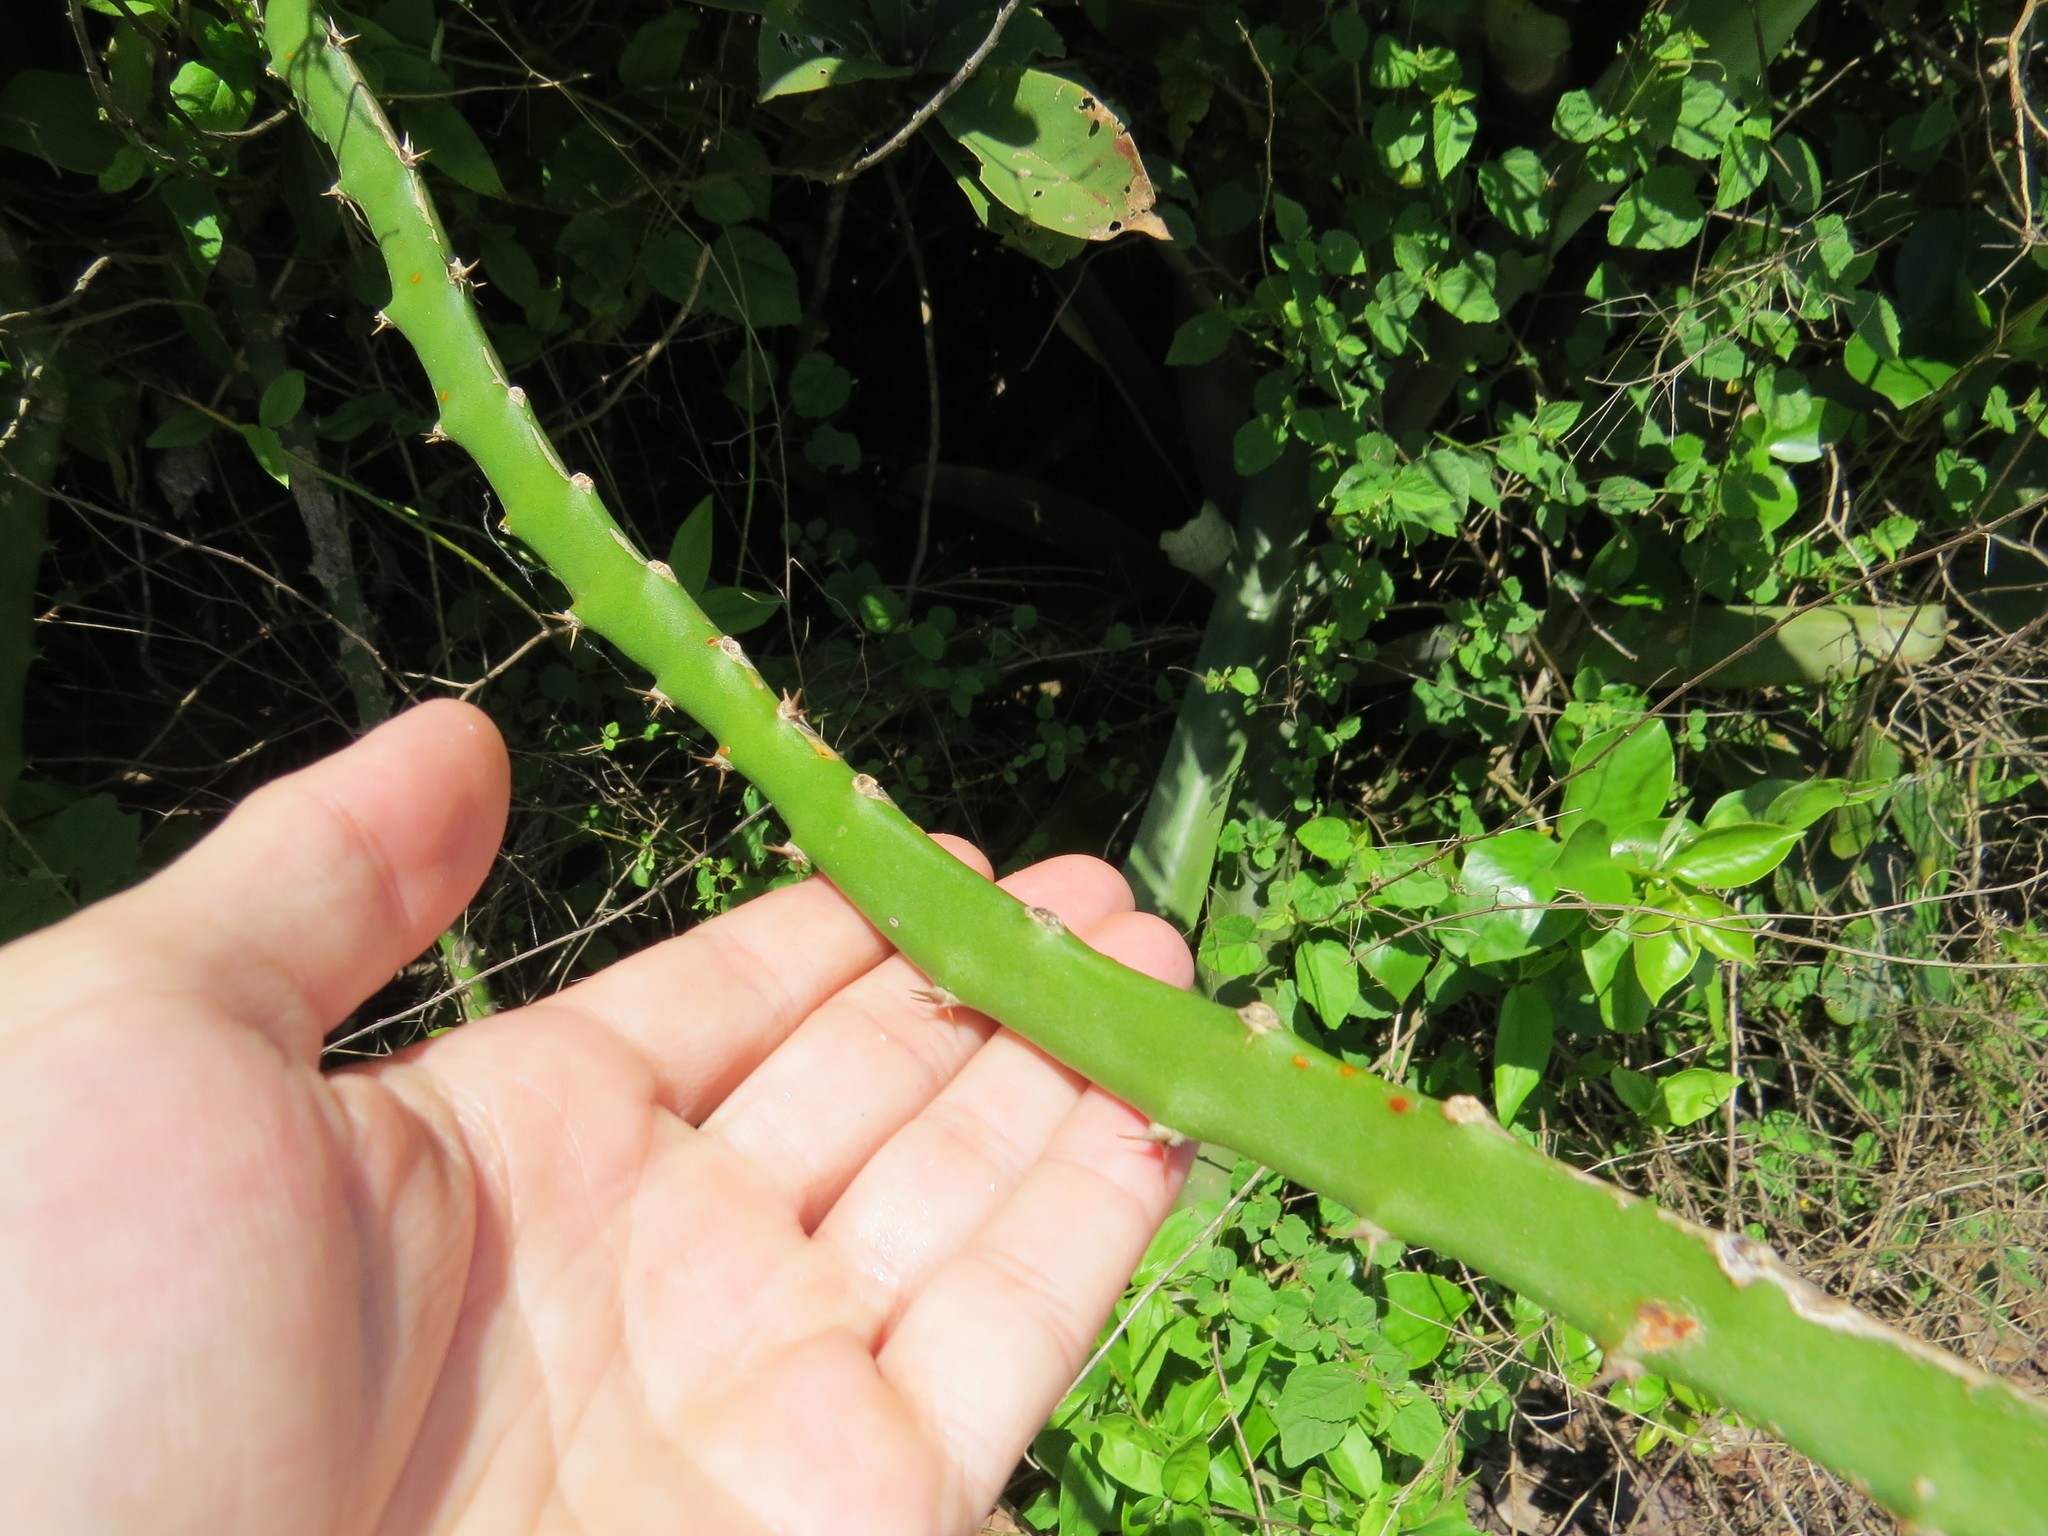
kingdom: Plantae
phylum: Tracheophyta
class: Magnoliopsida
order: Caryophyllales
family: Cactaceae
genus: Selenicereus
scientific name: Selenicereus setaceus
